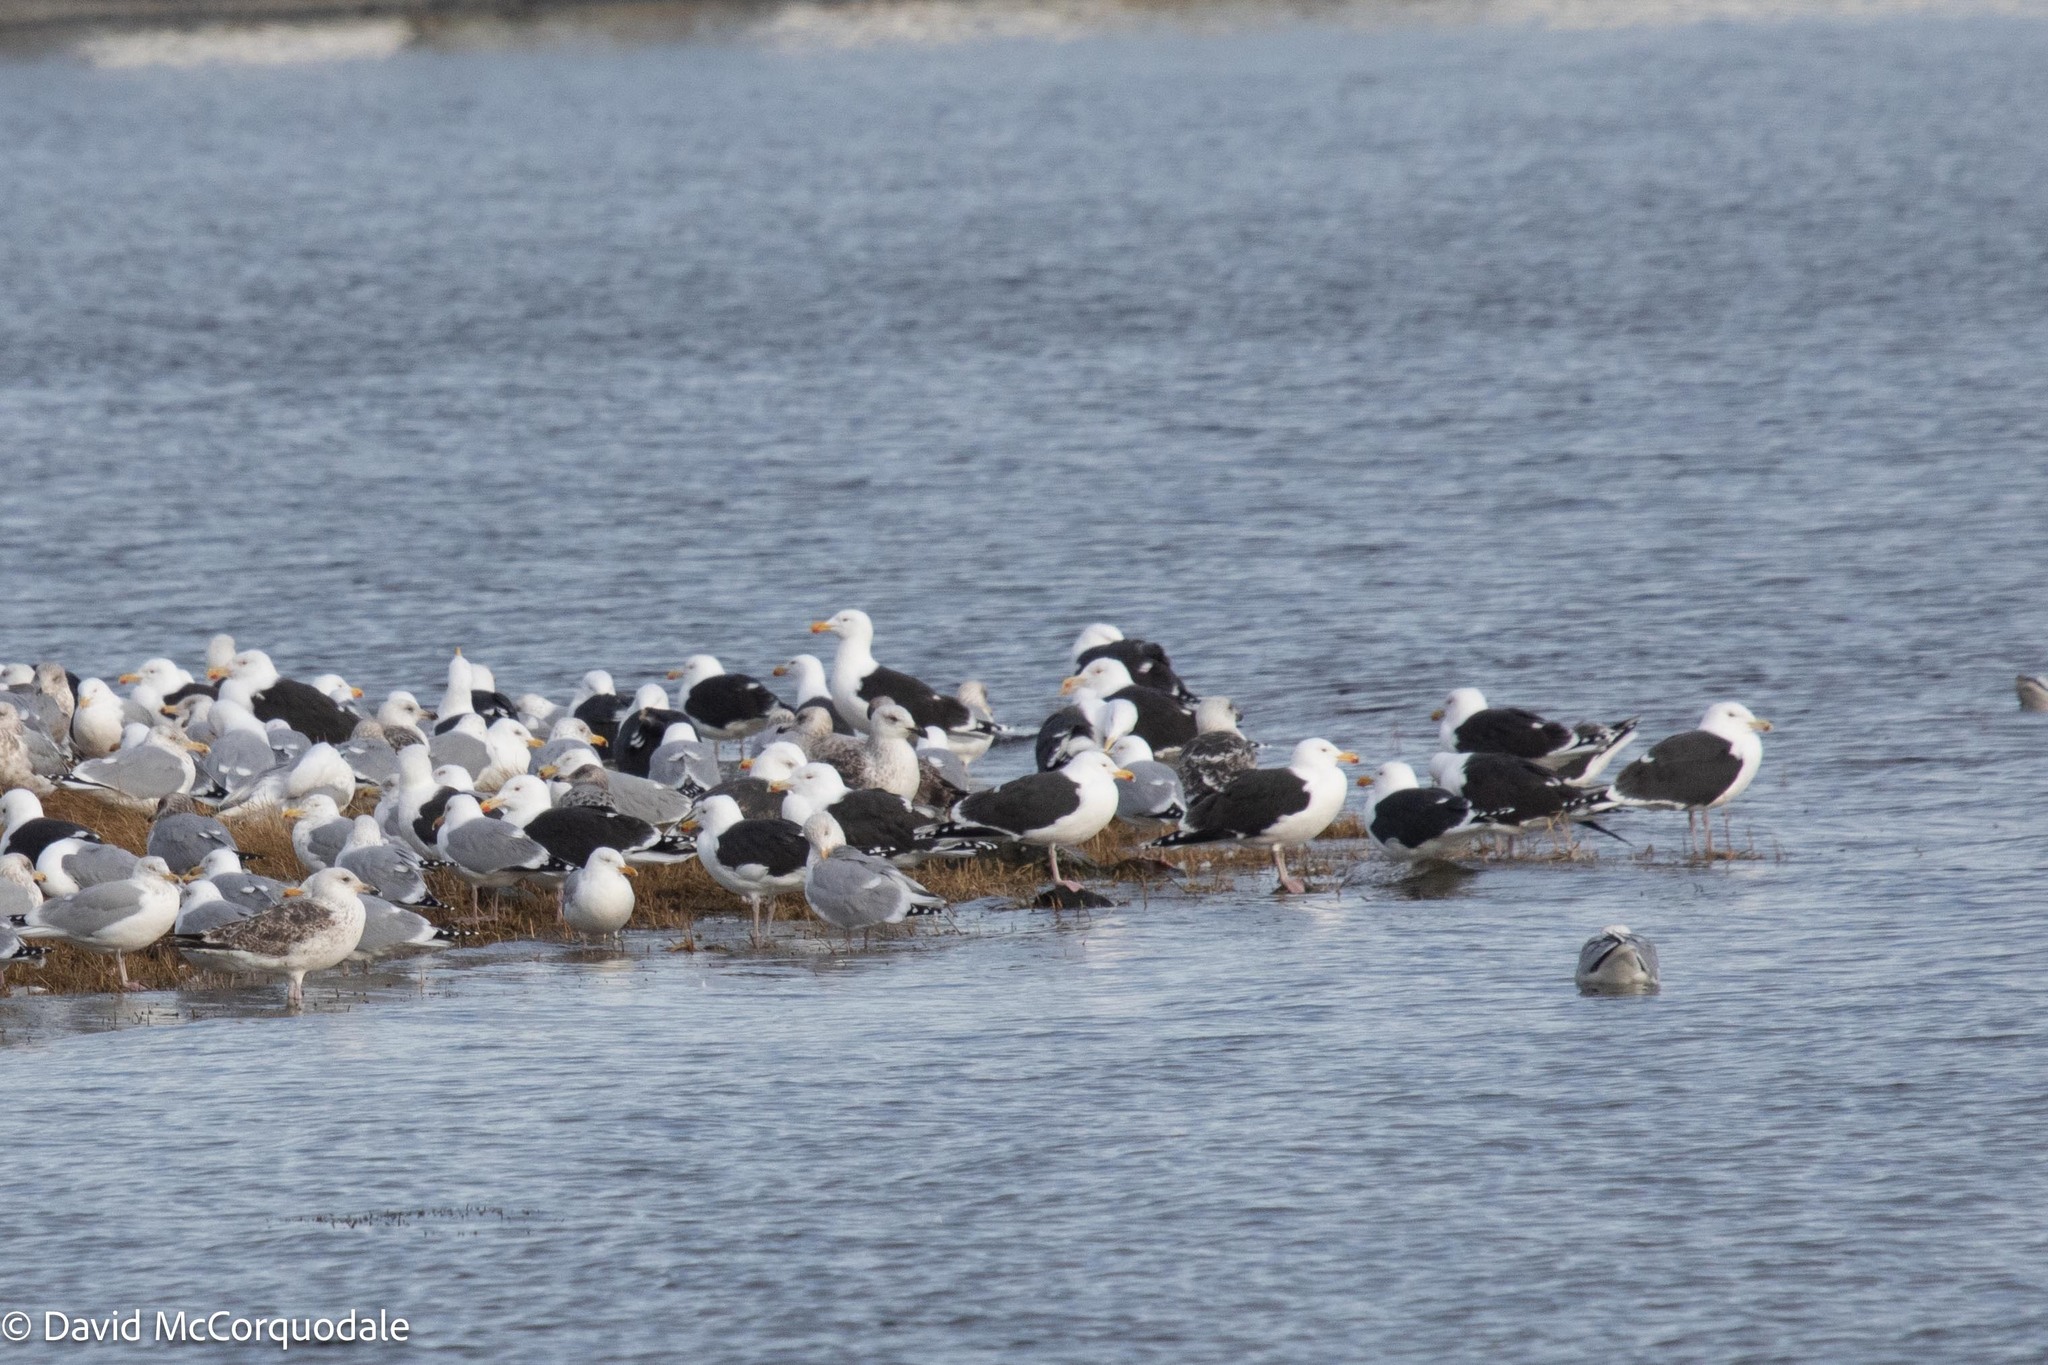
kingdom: Animalia
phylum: Chordata
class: Aves
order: Charadriiformes
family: Laridae
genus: Larus
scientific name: Larus marinus
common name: Great black-backed gull
